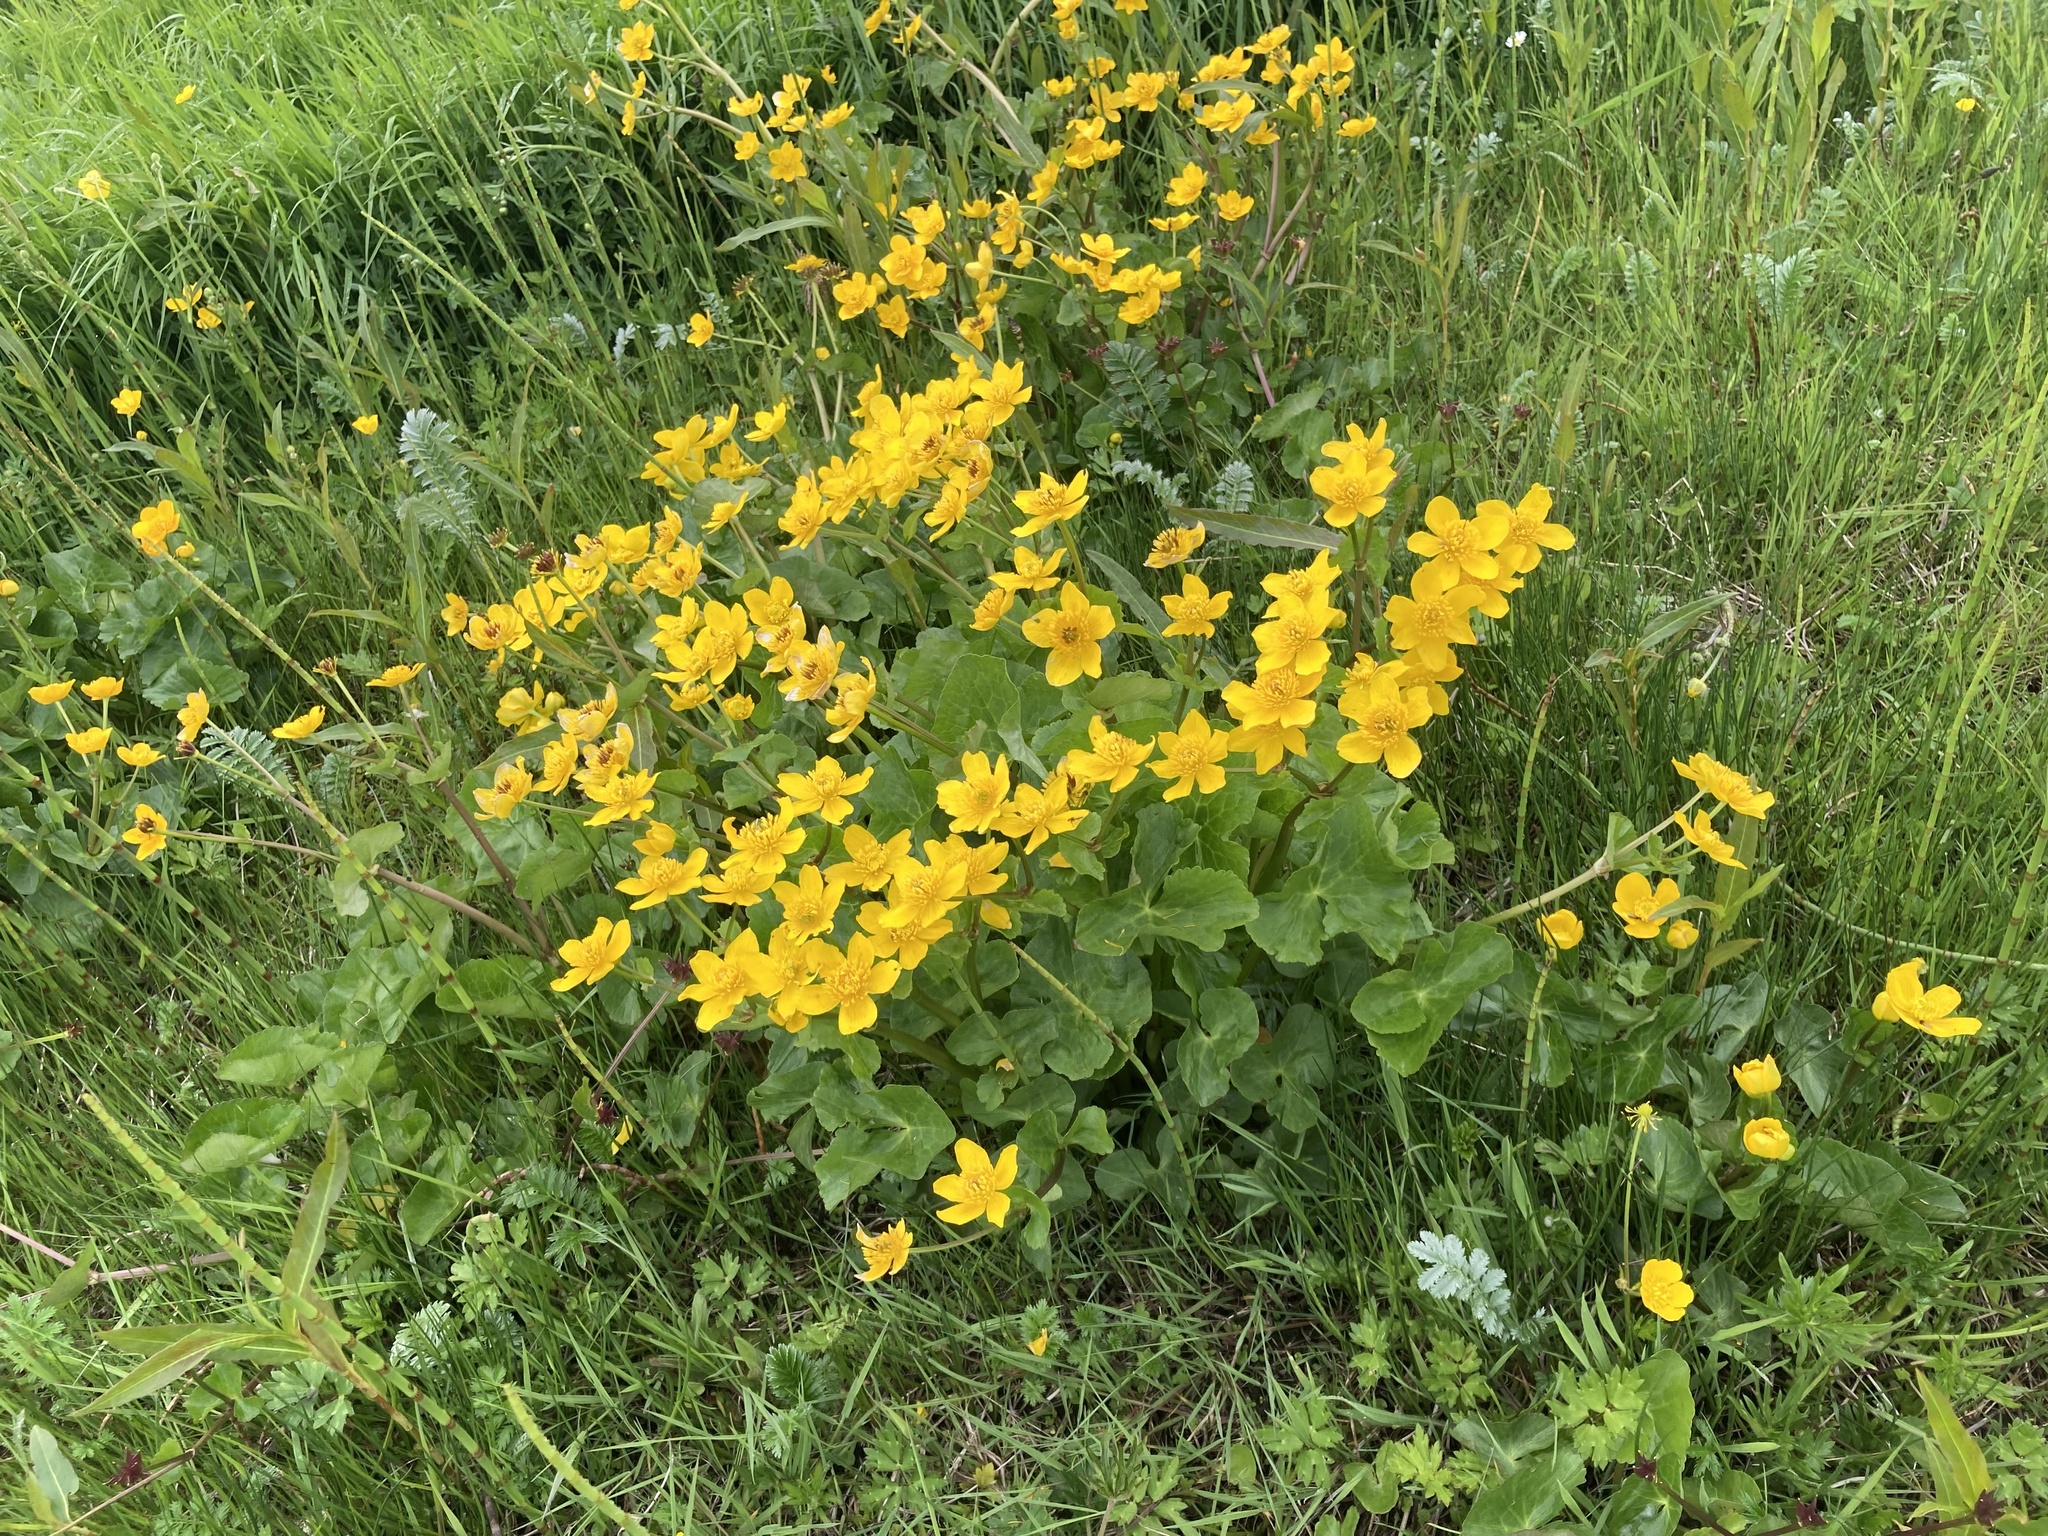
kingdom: Plantae
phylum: Tracheophyta
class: Magnoliopsida
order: Ranunculales
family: Ranunculaceae
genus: Caltha
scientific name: Caltha palustris
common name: Marsh marigold
